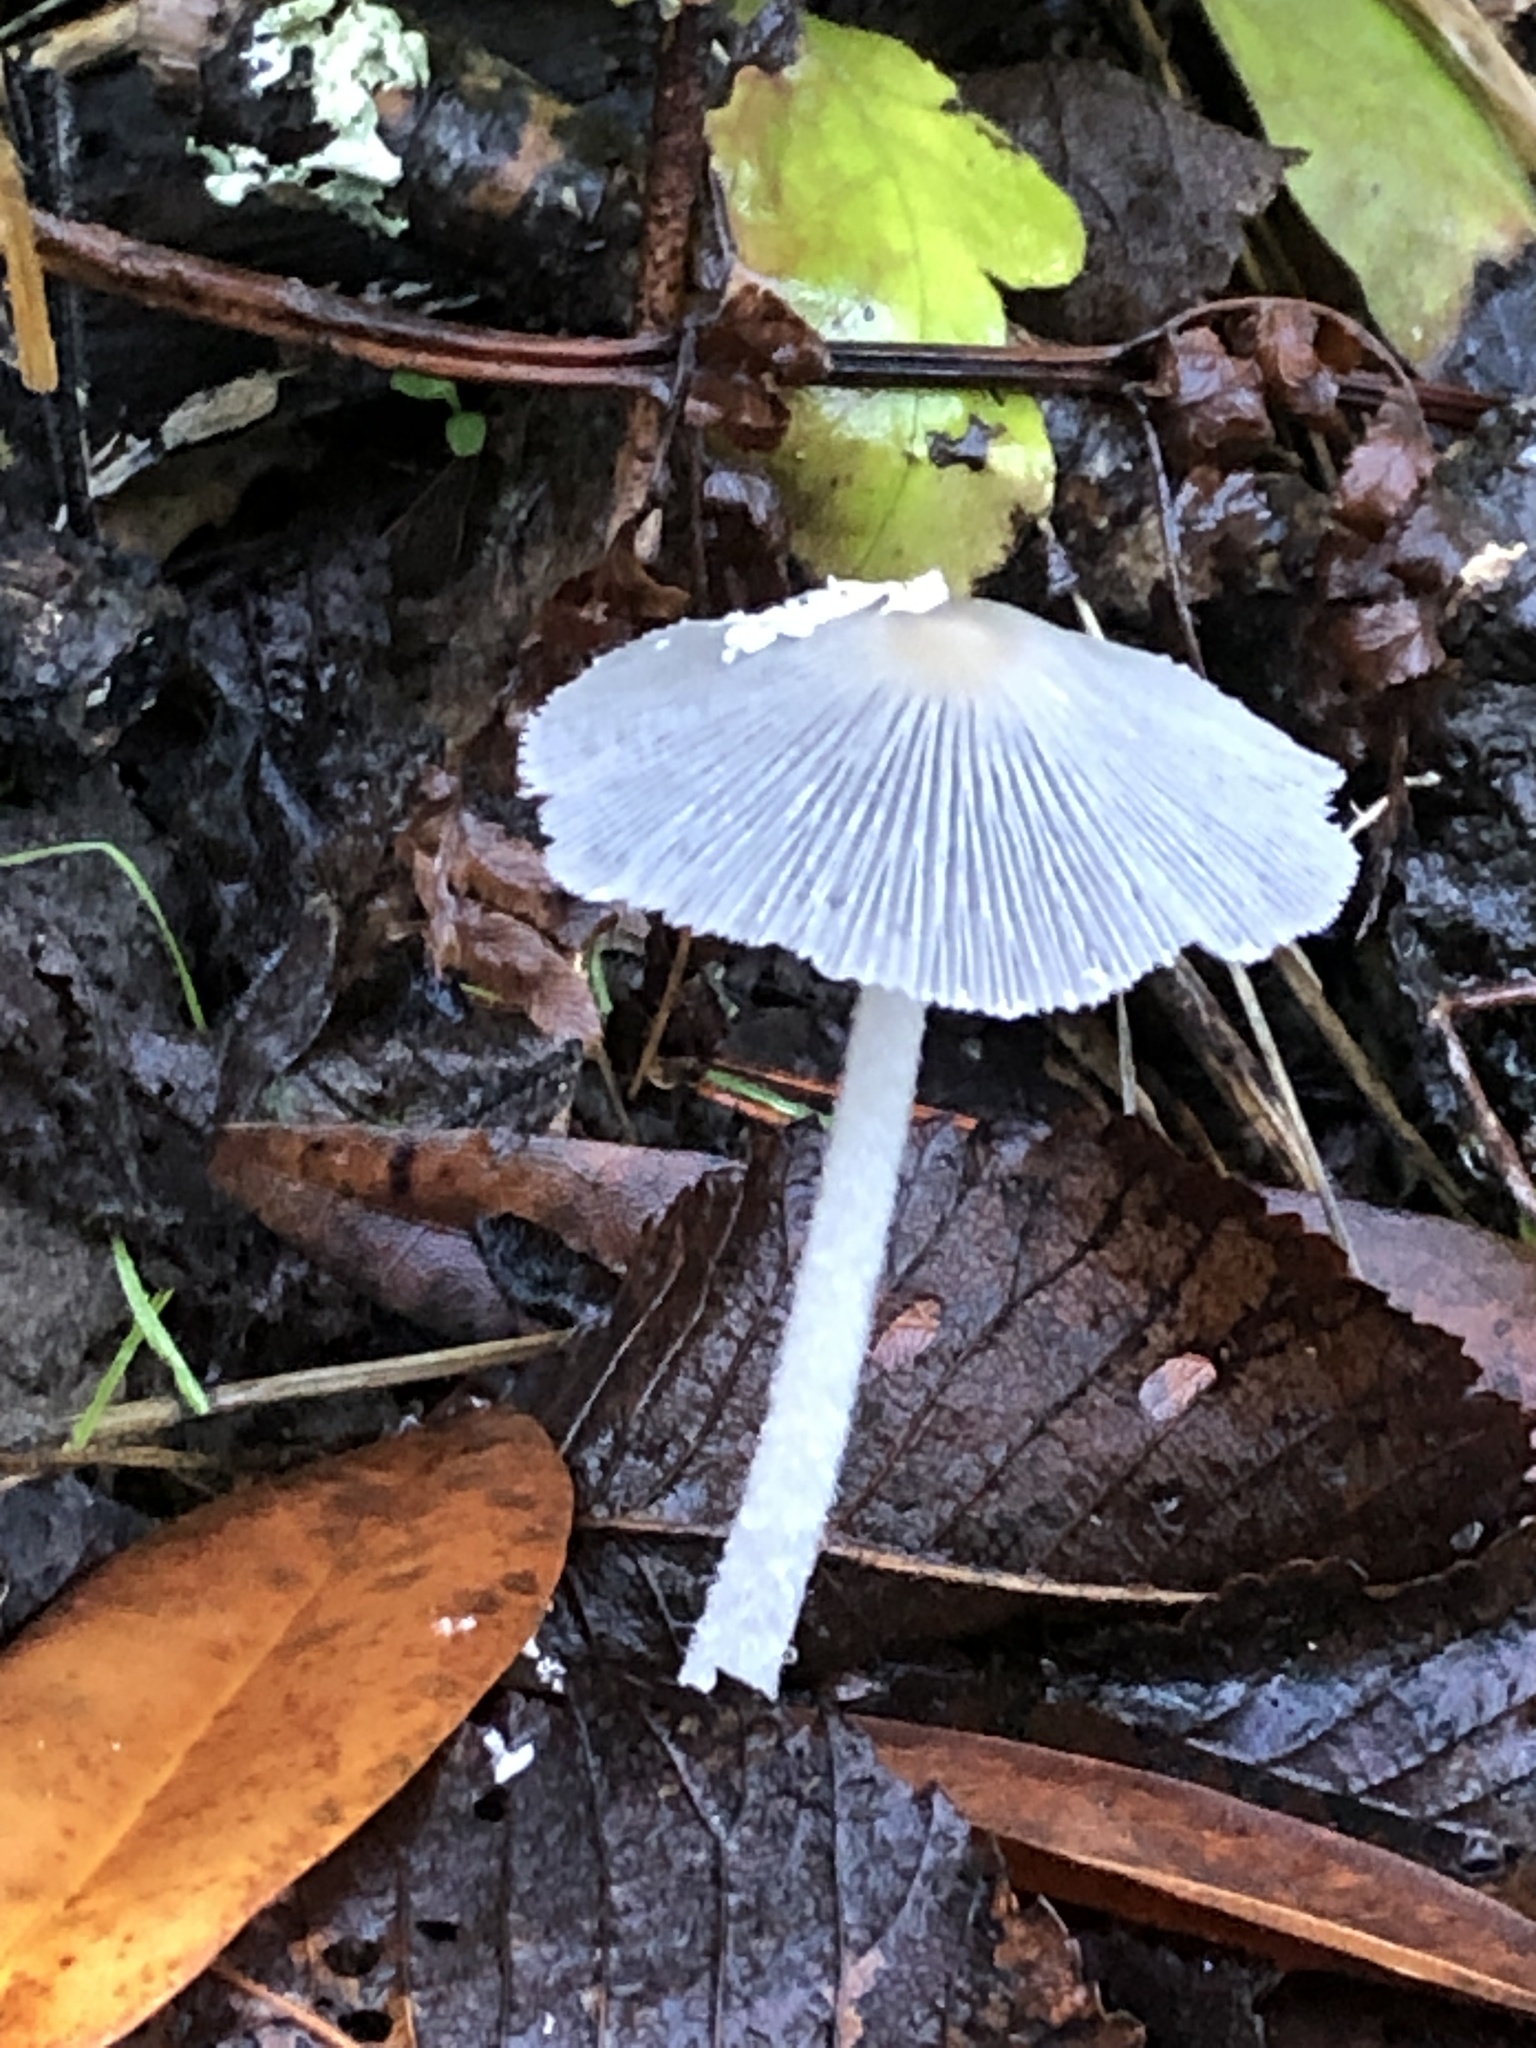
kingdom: Fungi
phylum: Basidiomycota
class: Agaricomycetes
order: Agaricales
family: Psathyrellaceae
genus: Coprinopsis
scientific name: Coprinopsis lagopus
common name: Hare'sfoot inkcap
